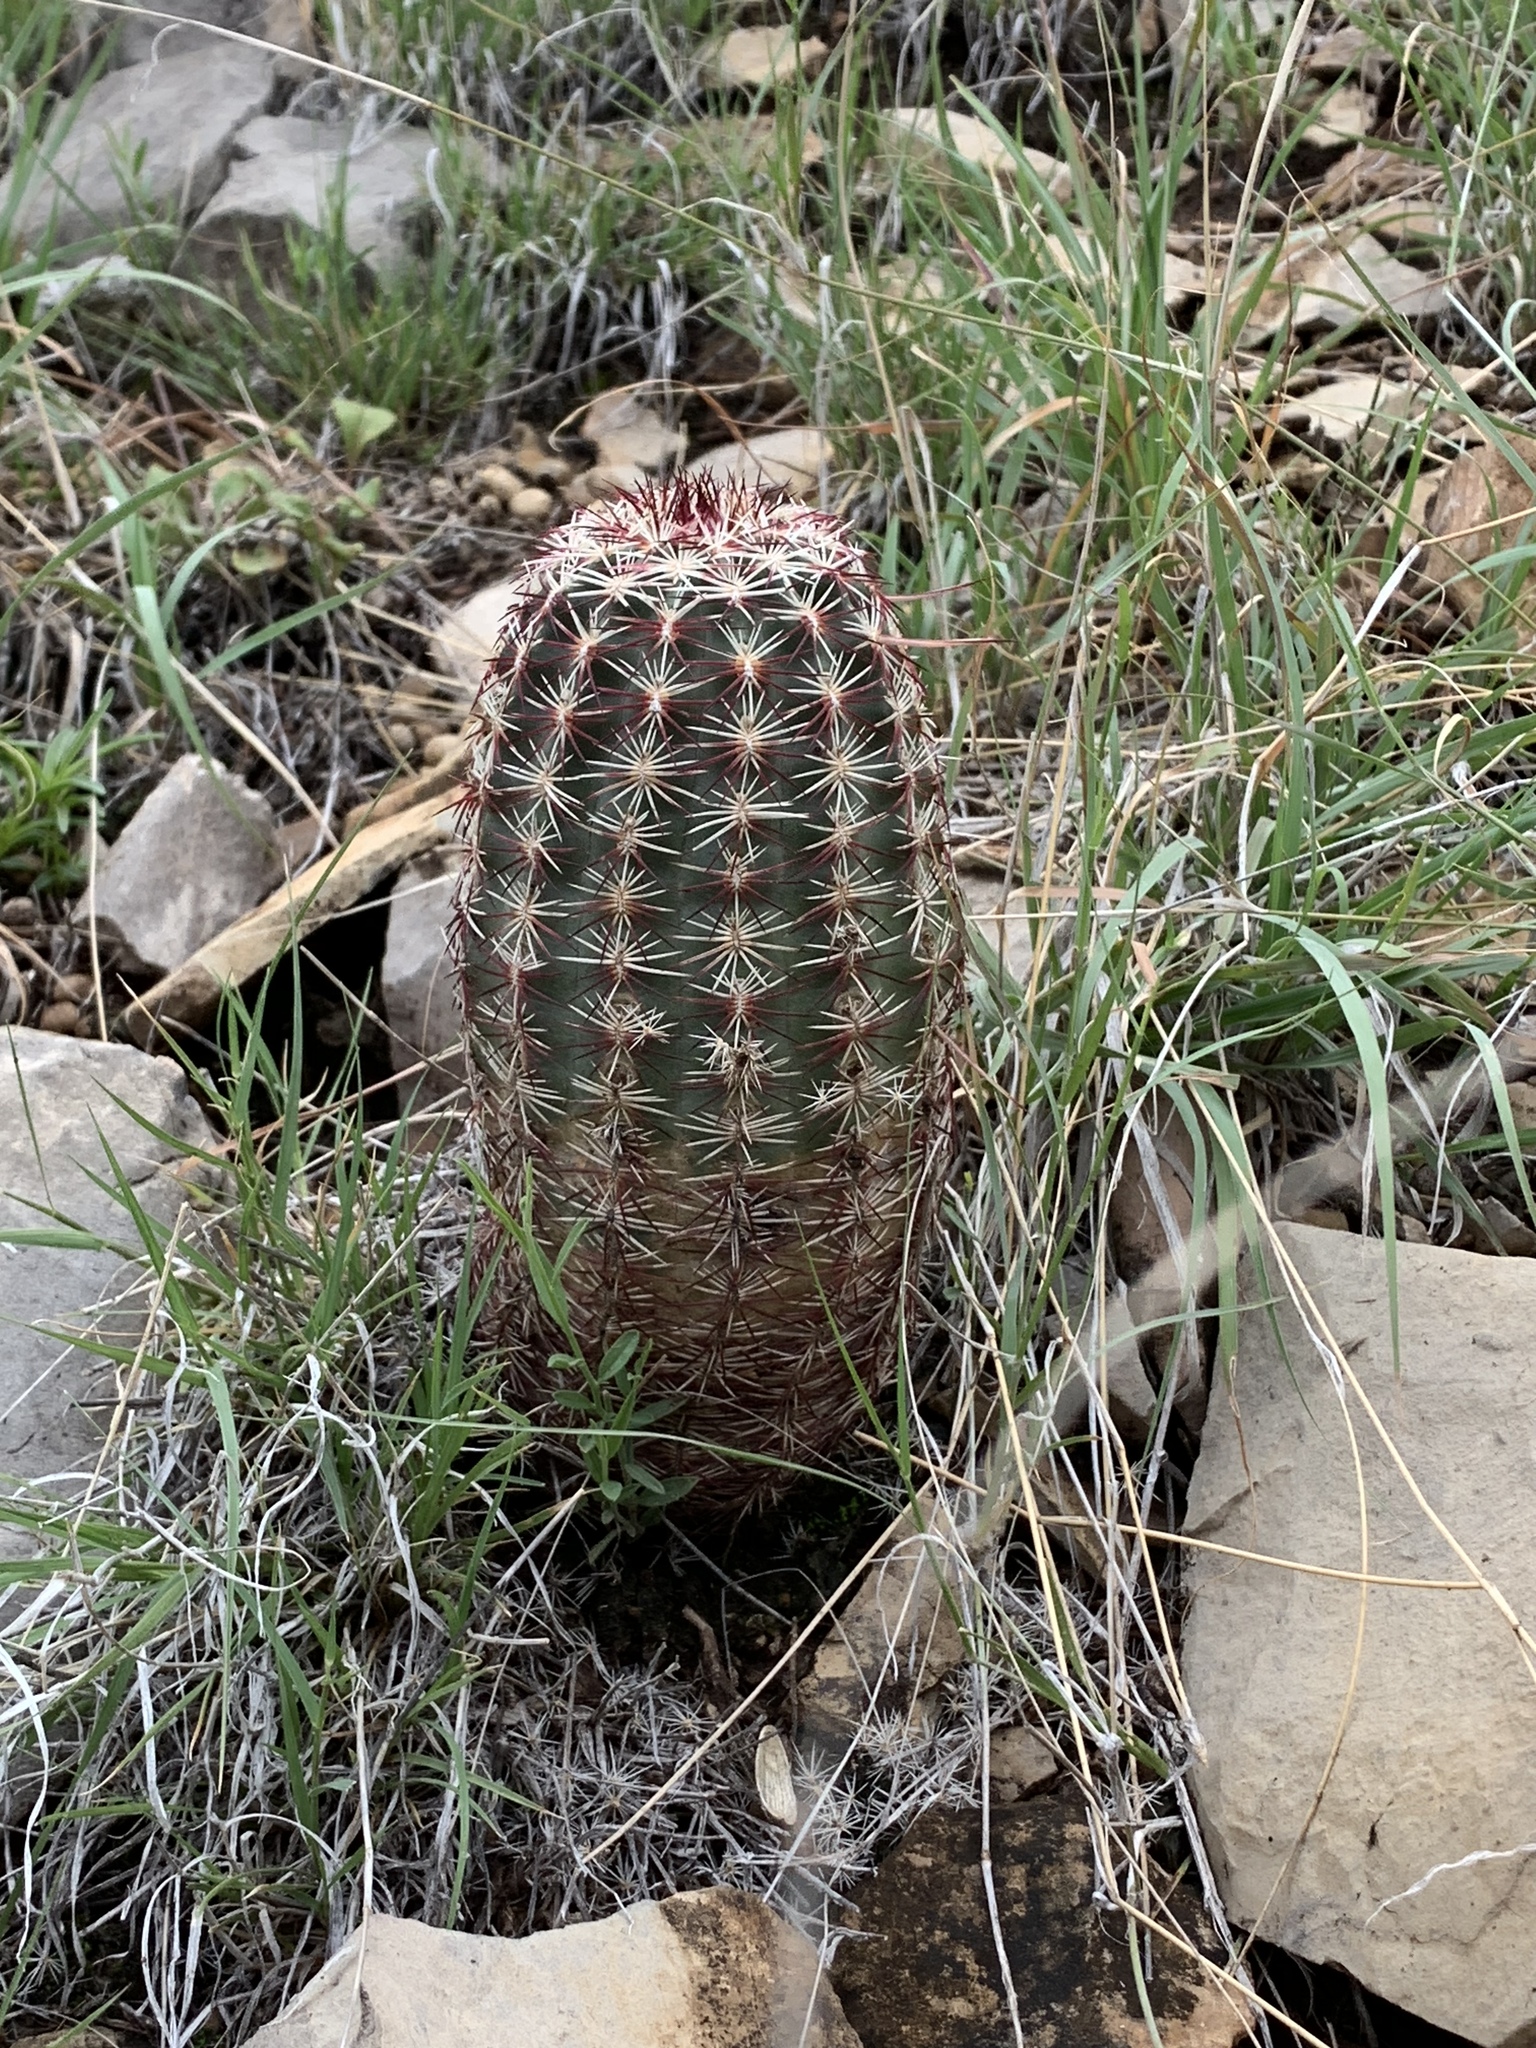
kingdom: Plantae
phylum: Tracheophyta
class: Magnoliopsida
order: Caryophyllales
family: Cactaceae
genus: Echinocereus
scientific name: Echinocereus viridiflorus
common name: Nylon hedgehog cactus
